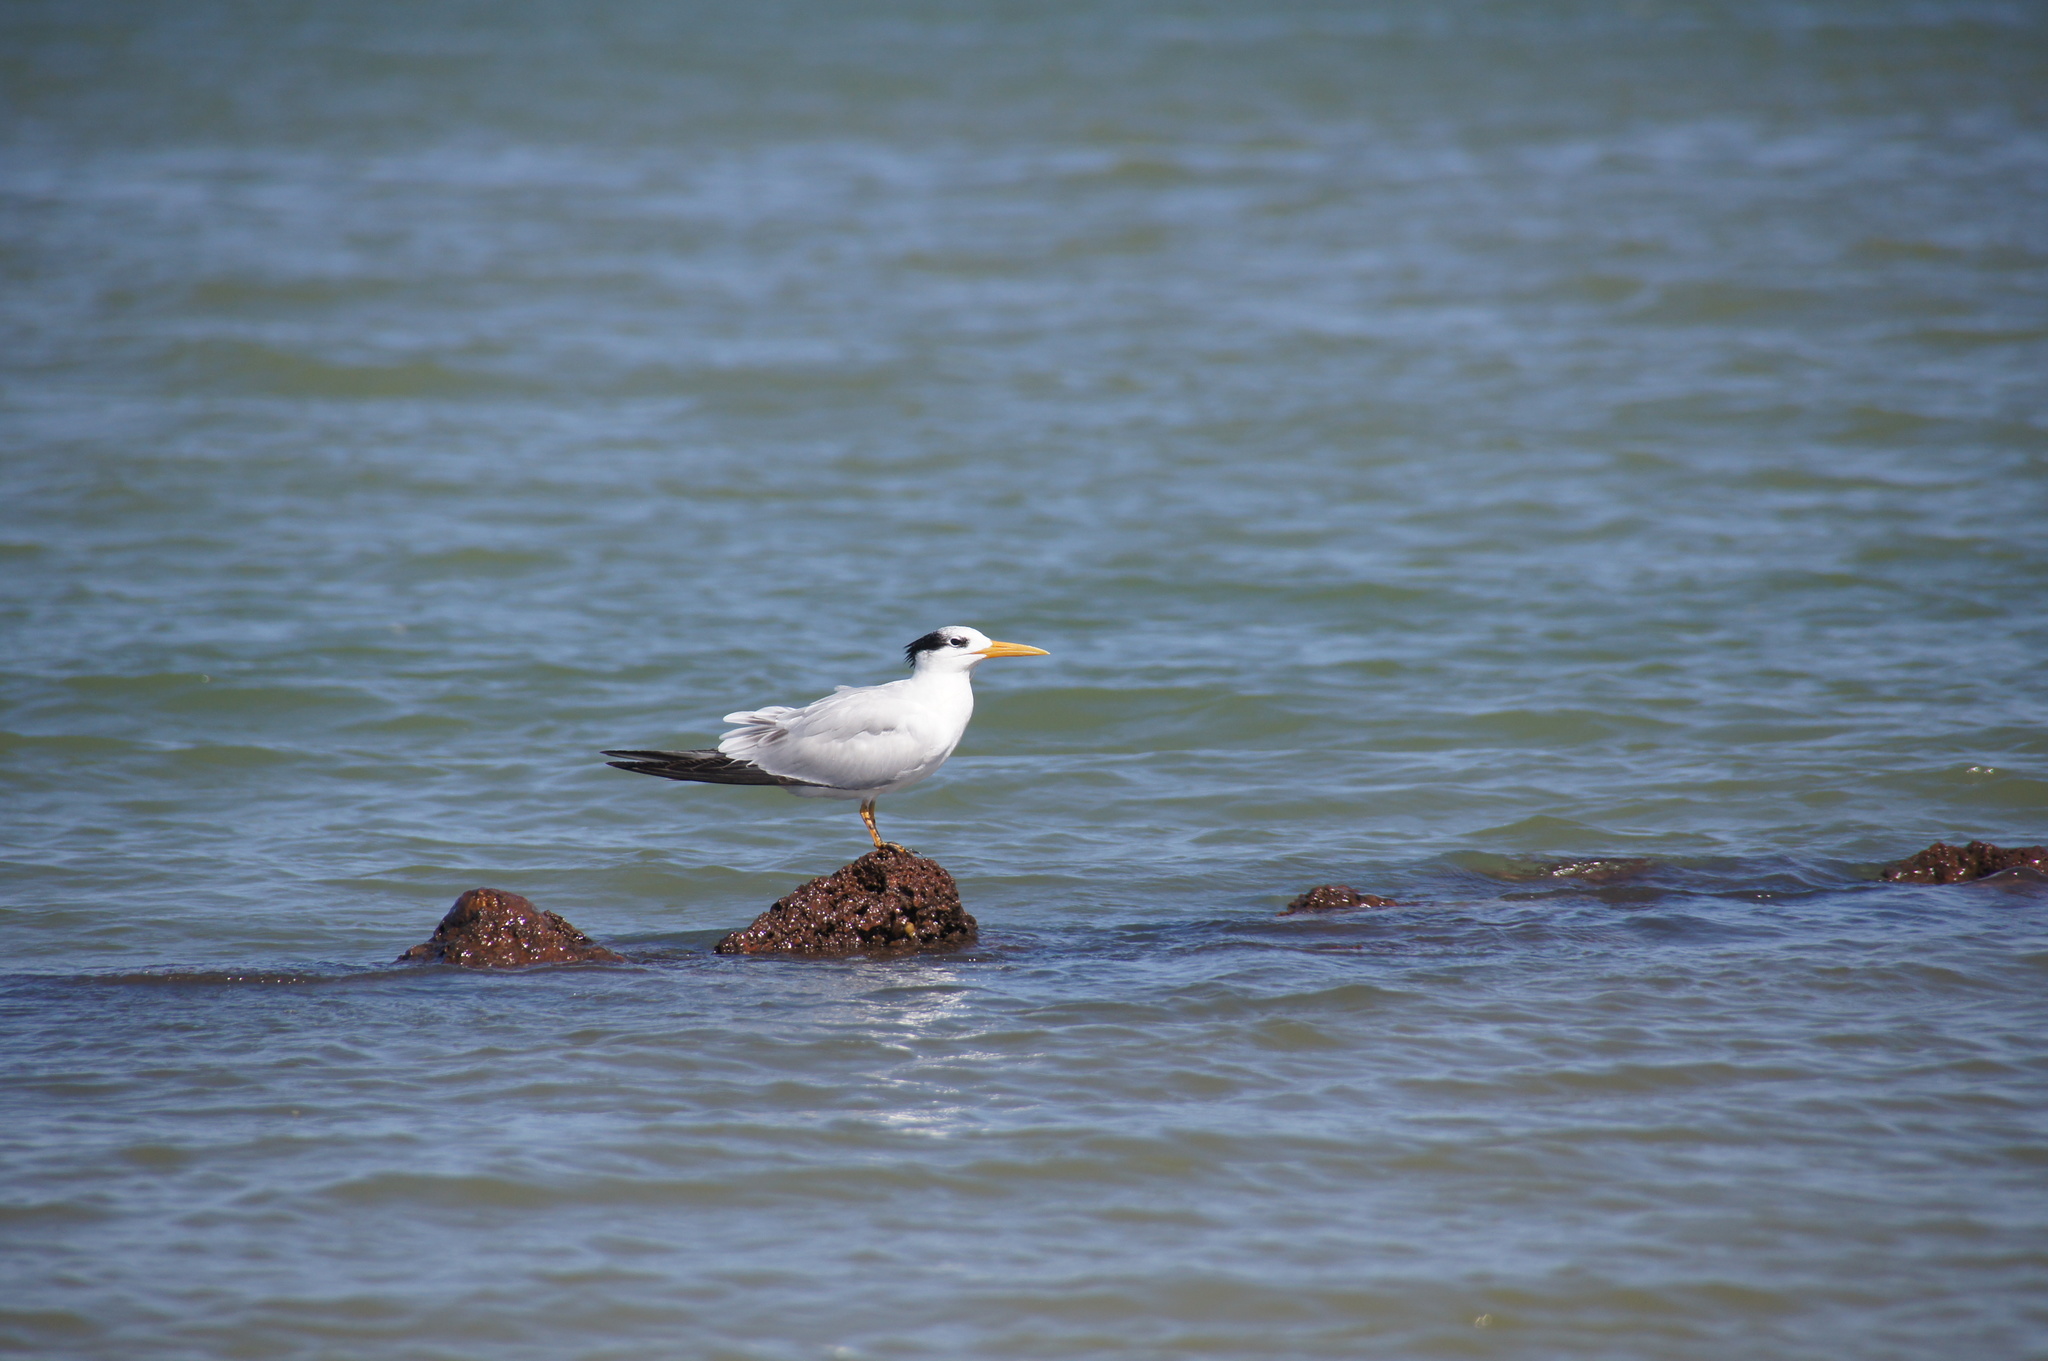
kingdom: Animalia
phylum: Chordata
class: Aves
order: Charadriiformes
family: Laridae
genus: Thalasseus
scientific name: Thalasseus albididorsalis
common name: West african crested tern
